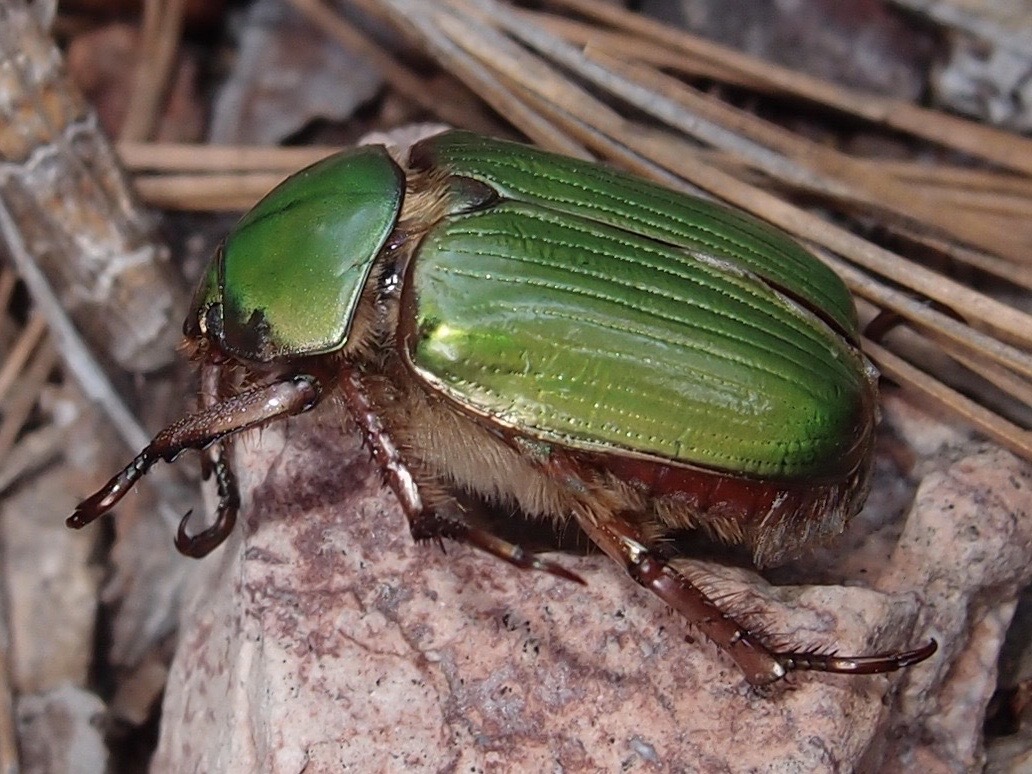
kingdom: Animalia
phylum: Arthropoda
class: Insecta
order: Coleoptera
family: Scarabaeidae
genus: Chrysina
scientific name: Chrysina lecontei
